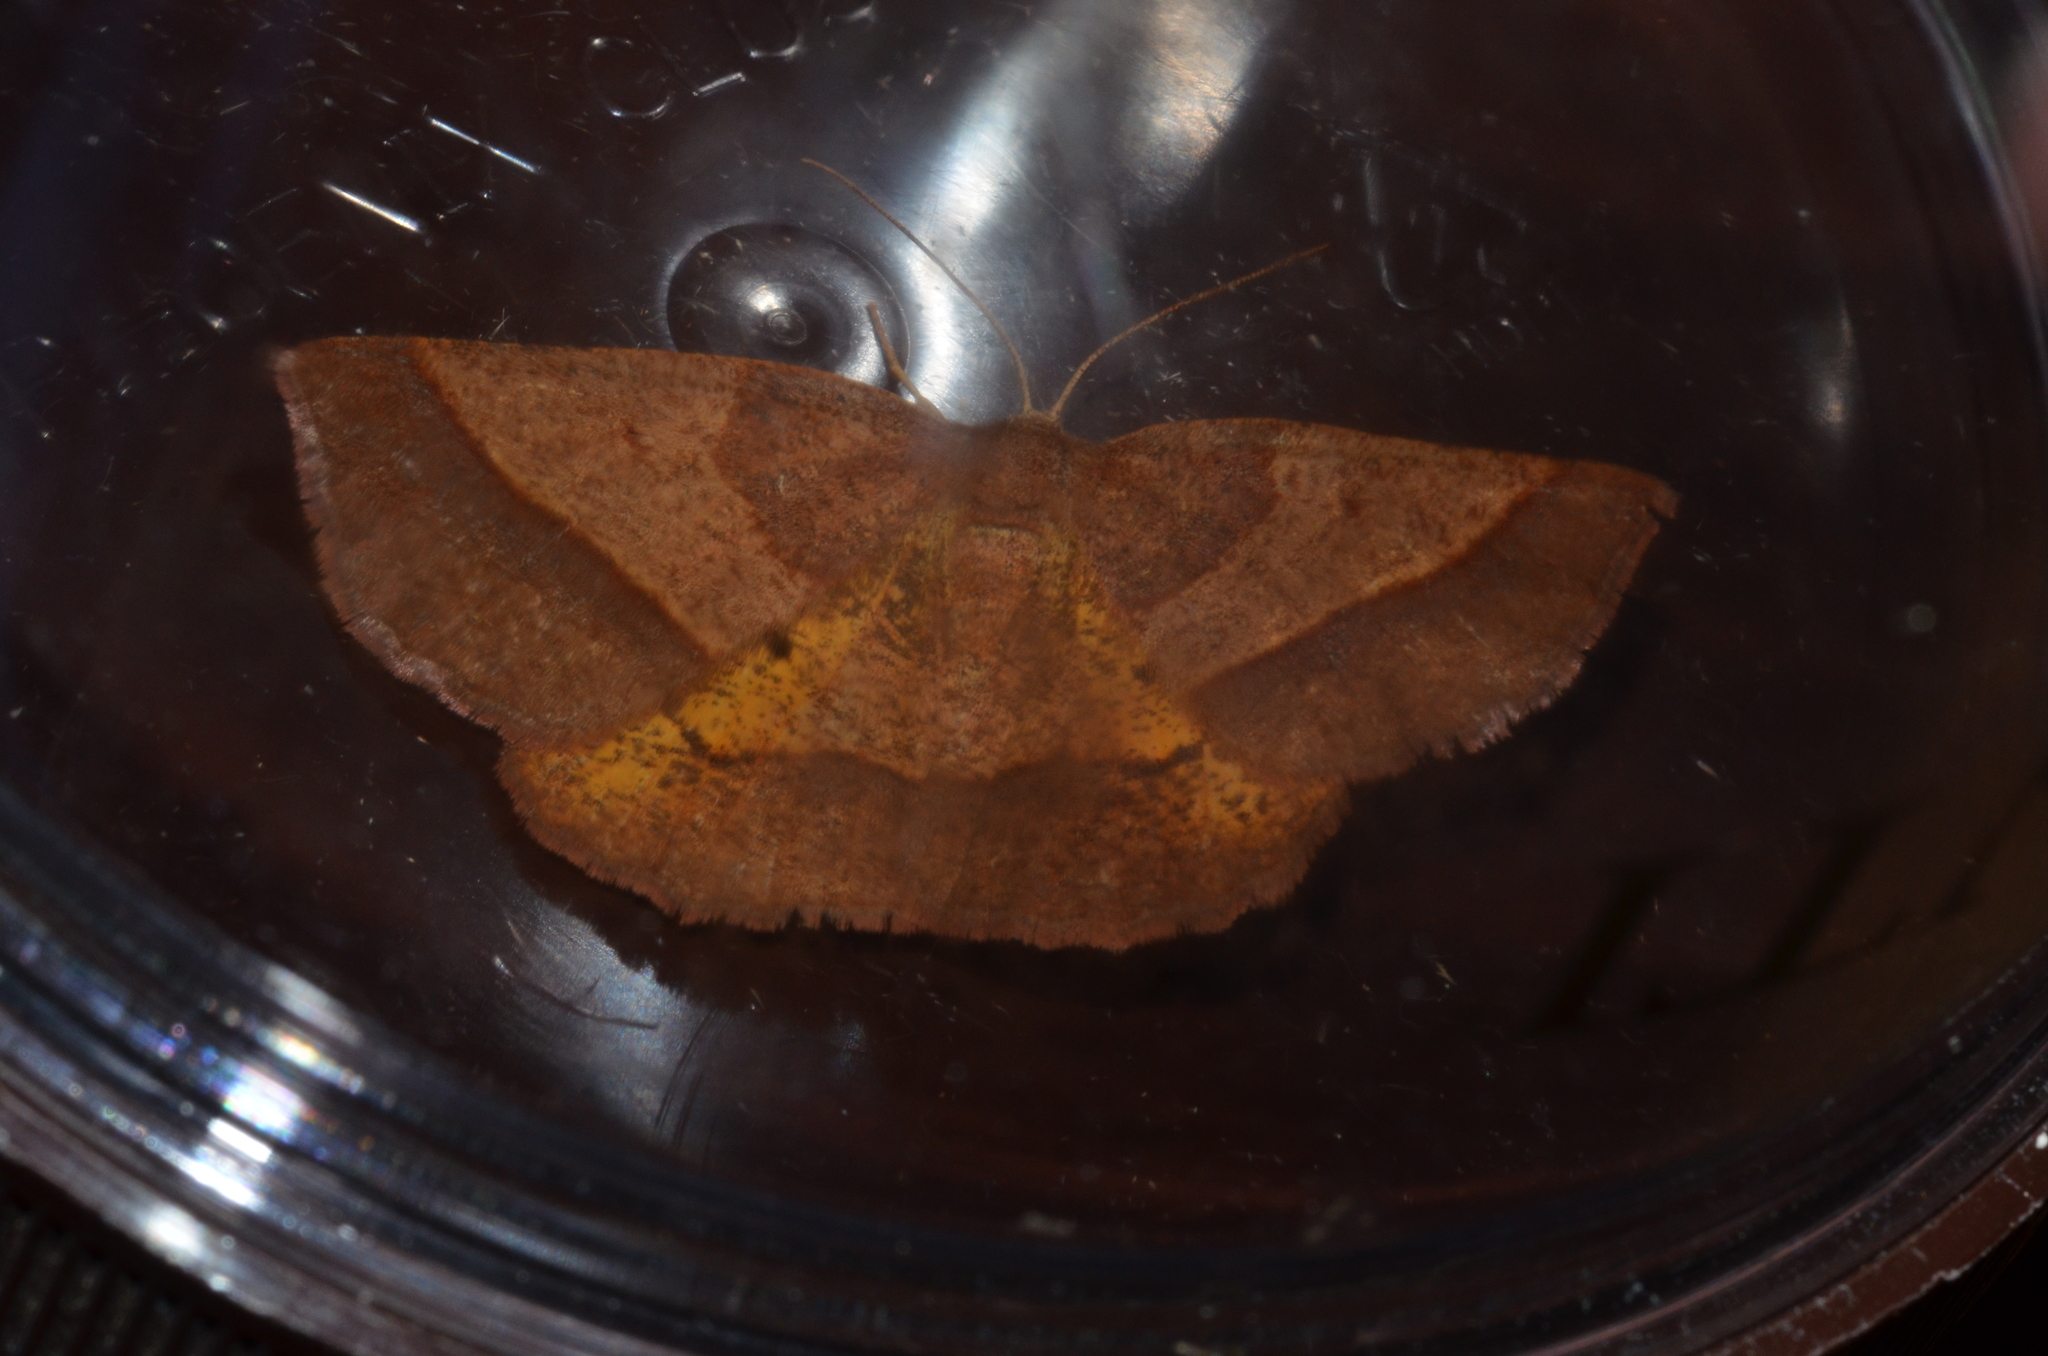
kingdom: Animalia
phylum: Arthropoda
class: Insecta
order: Lepidoptera
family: Geometridae
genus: Metarranthis
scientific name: Metarranthis obfirmaria
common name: Yellow-washed metarranthis
